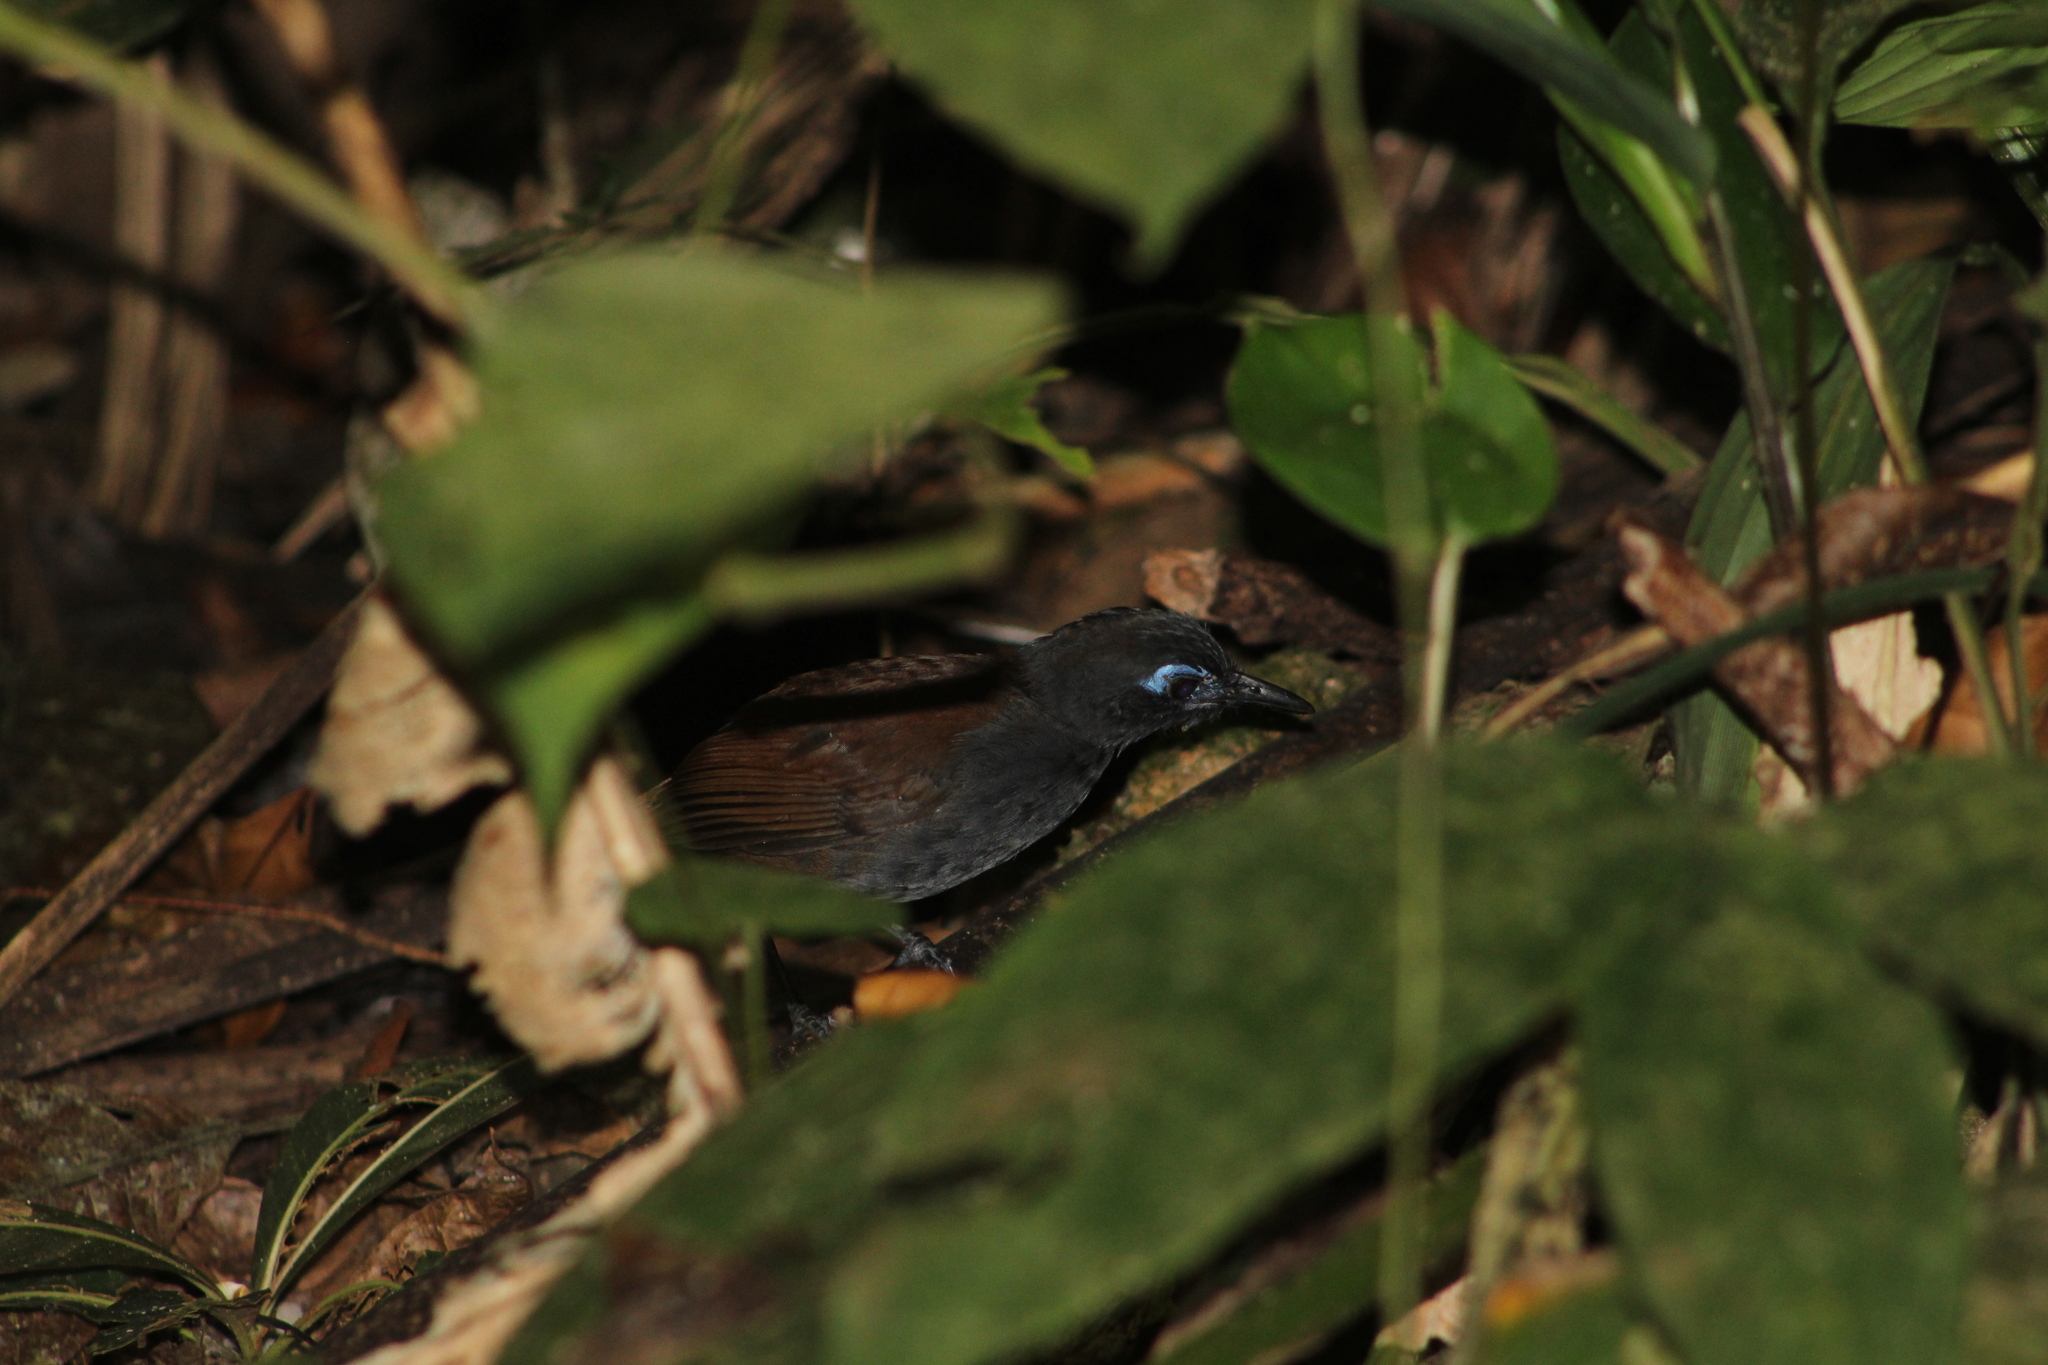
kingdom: Animalia
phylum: Chordata
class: Aves
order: Passeriformes
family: Thamnophilidae
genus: Myrmeciza
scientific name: Myrmeciza exsul
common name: Chestnut-backed antbird
